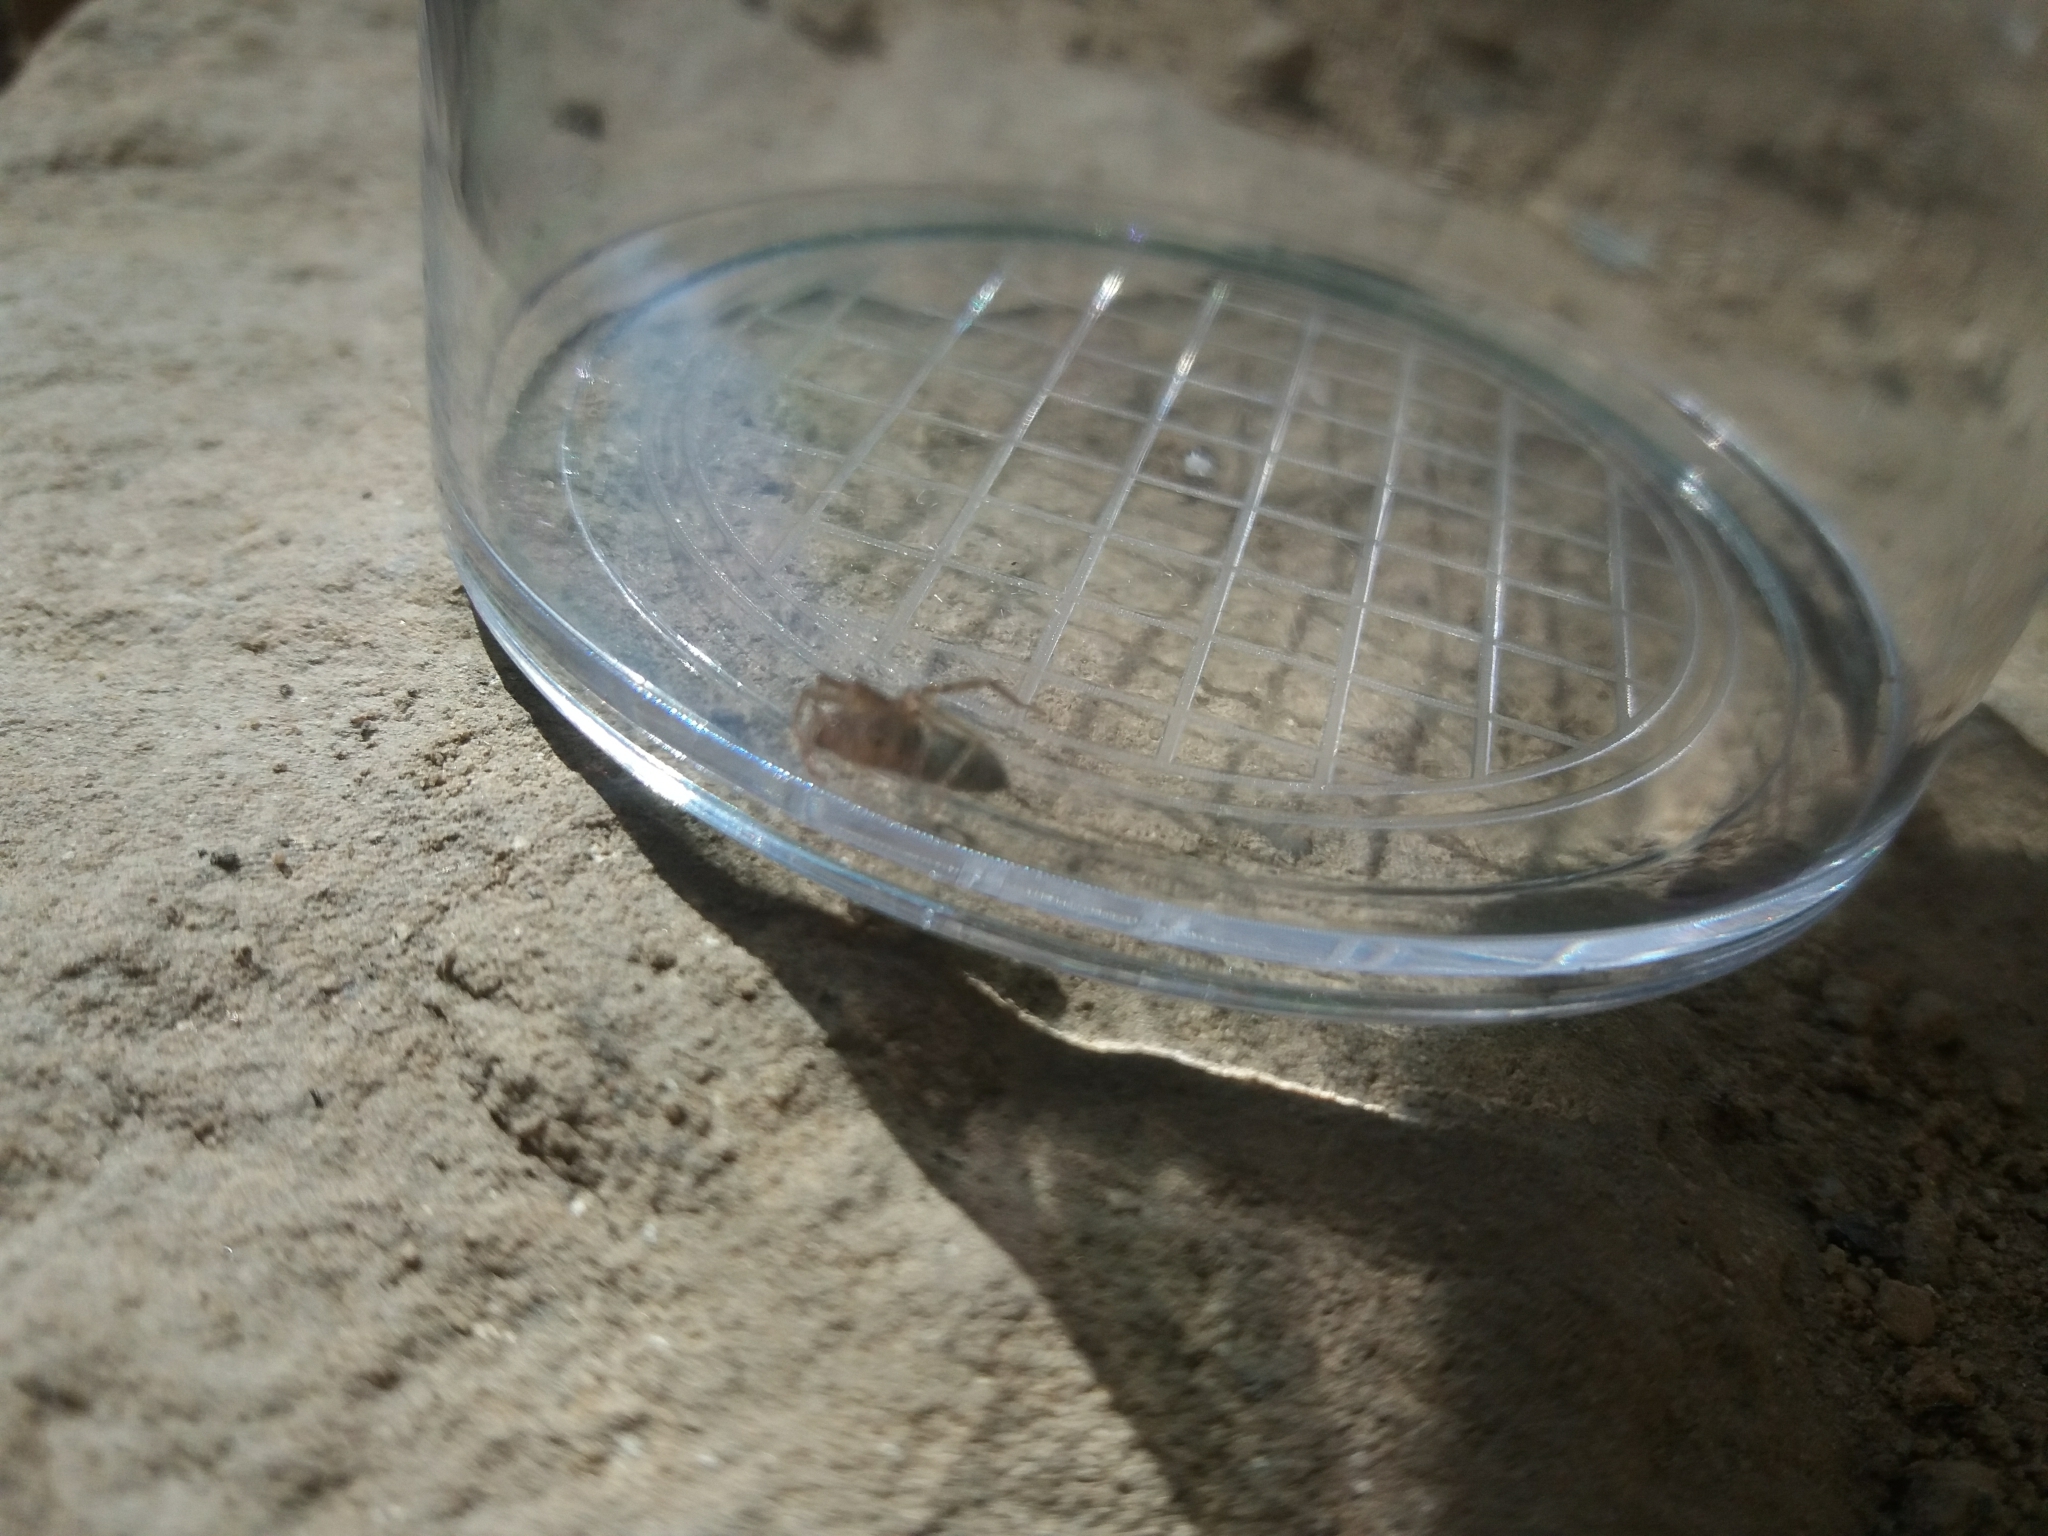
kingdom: Animalia
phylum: Arthropoda
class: Arachnida
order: Araneae
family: Liocranidae
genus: Liocranum
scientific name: Liocranum rupicola
